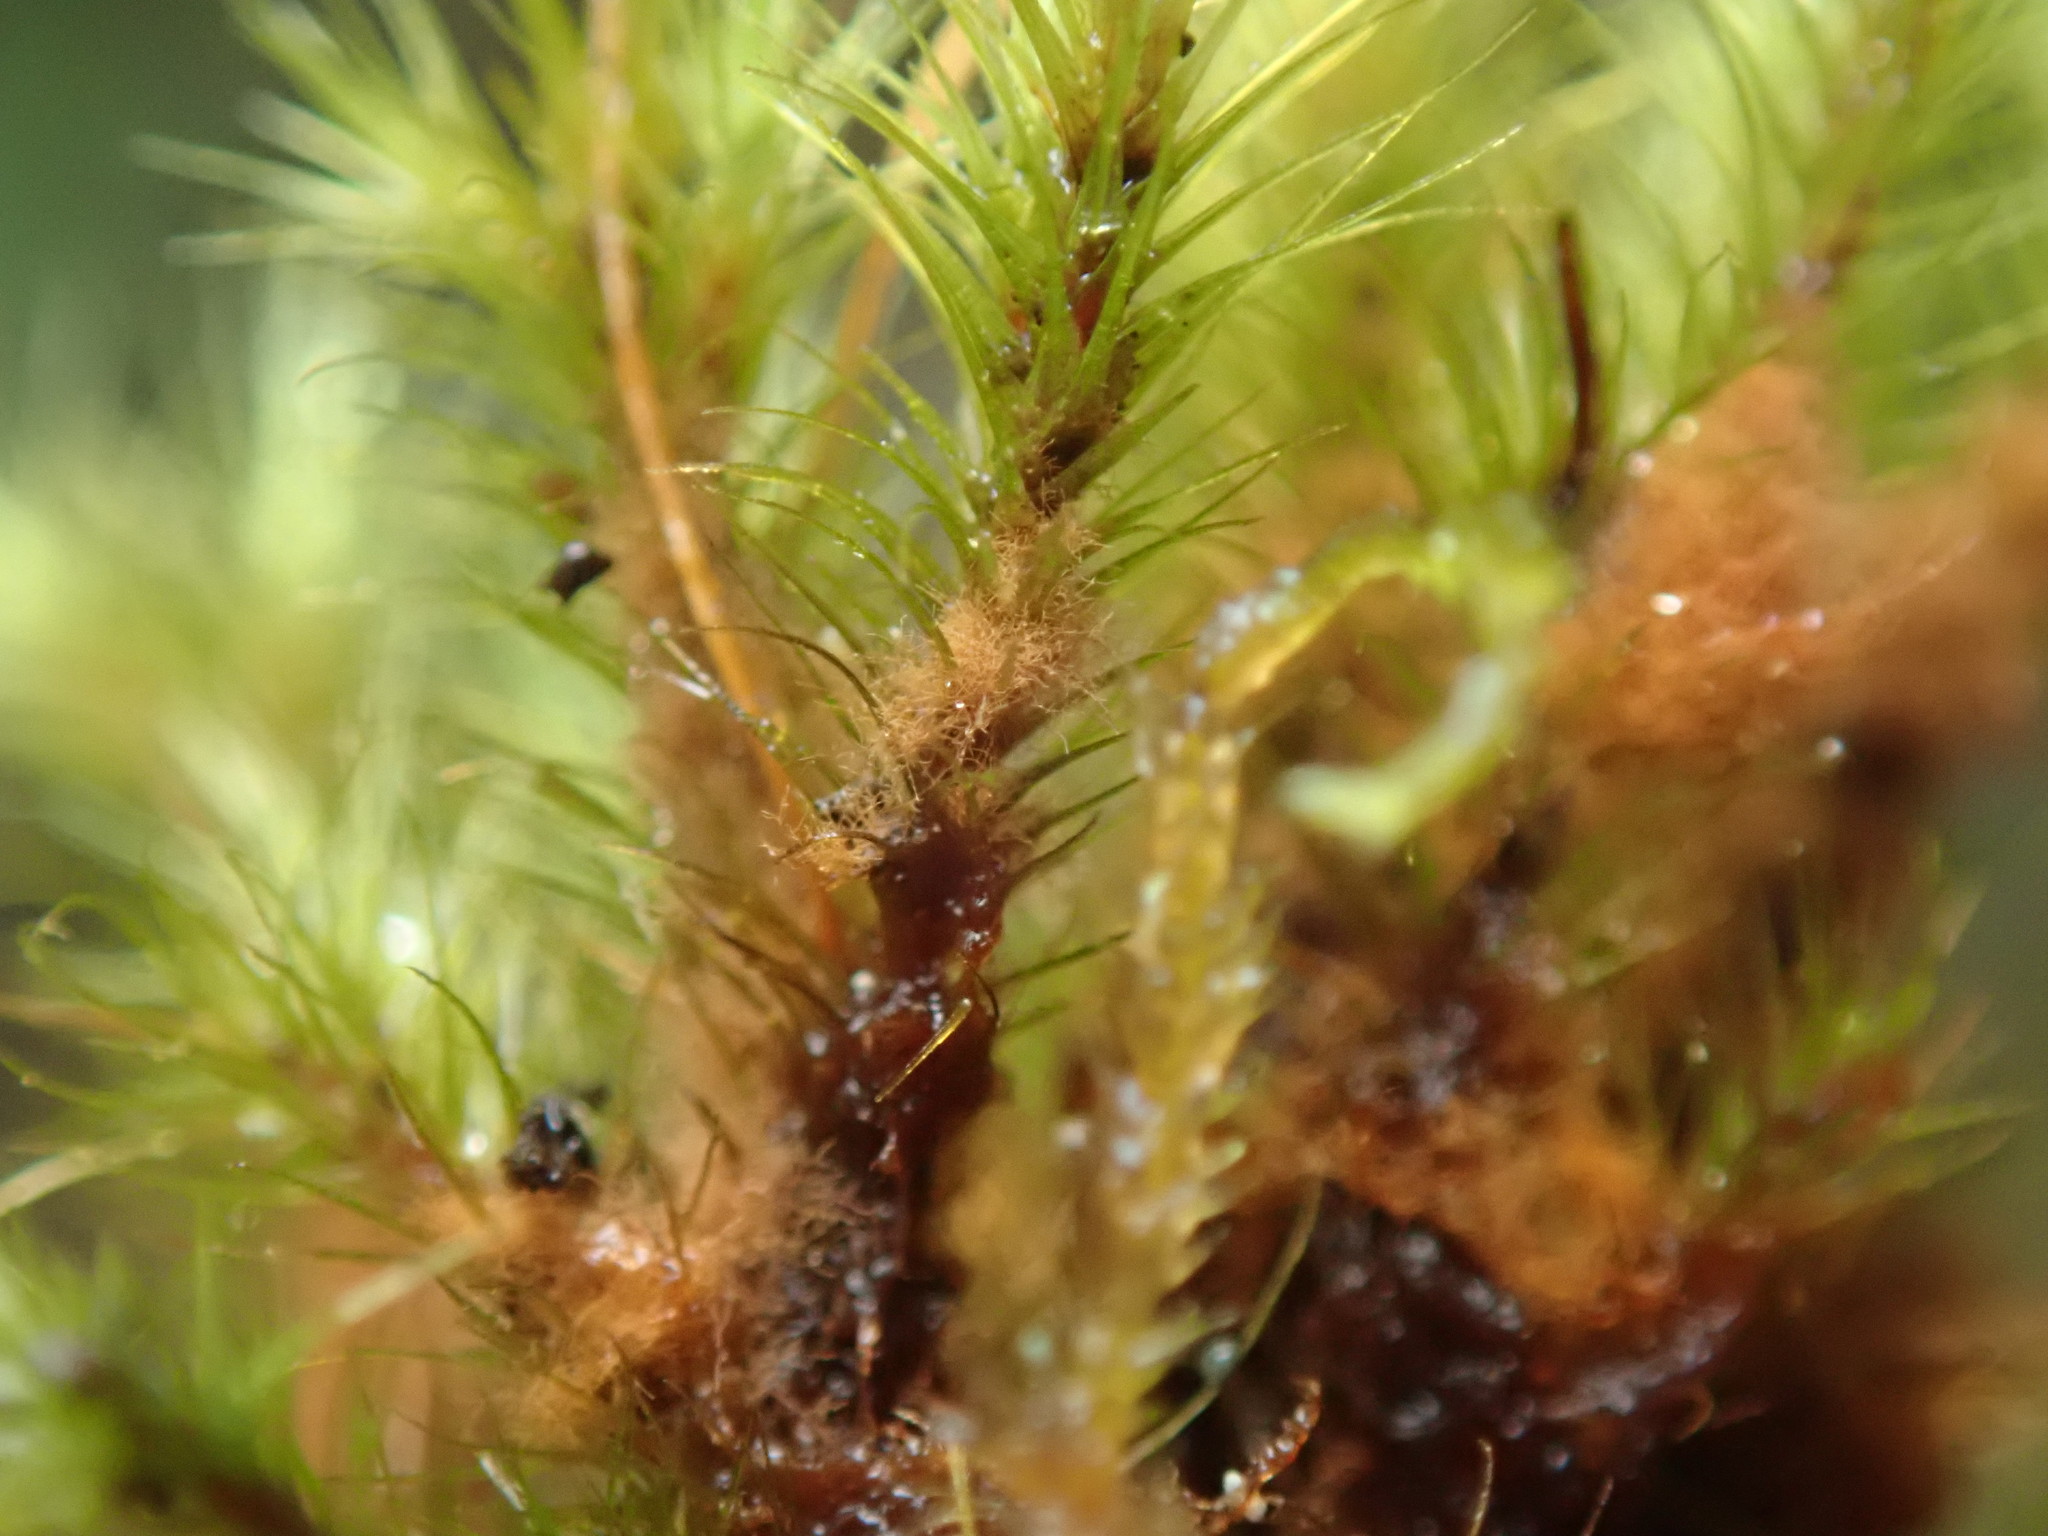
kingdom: Plantae
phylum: Bryophyta
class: Bryopsida
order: Bartramiales
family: Bartramiaceae
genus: Anacolia
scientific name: Anacolia menziesii
